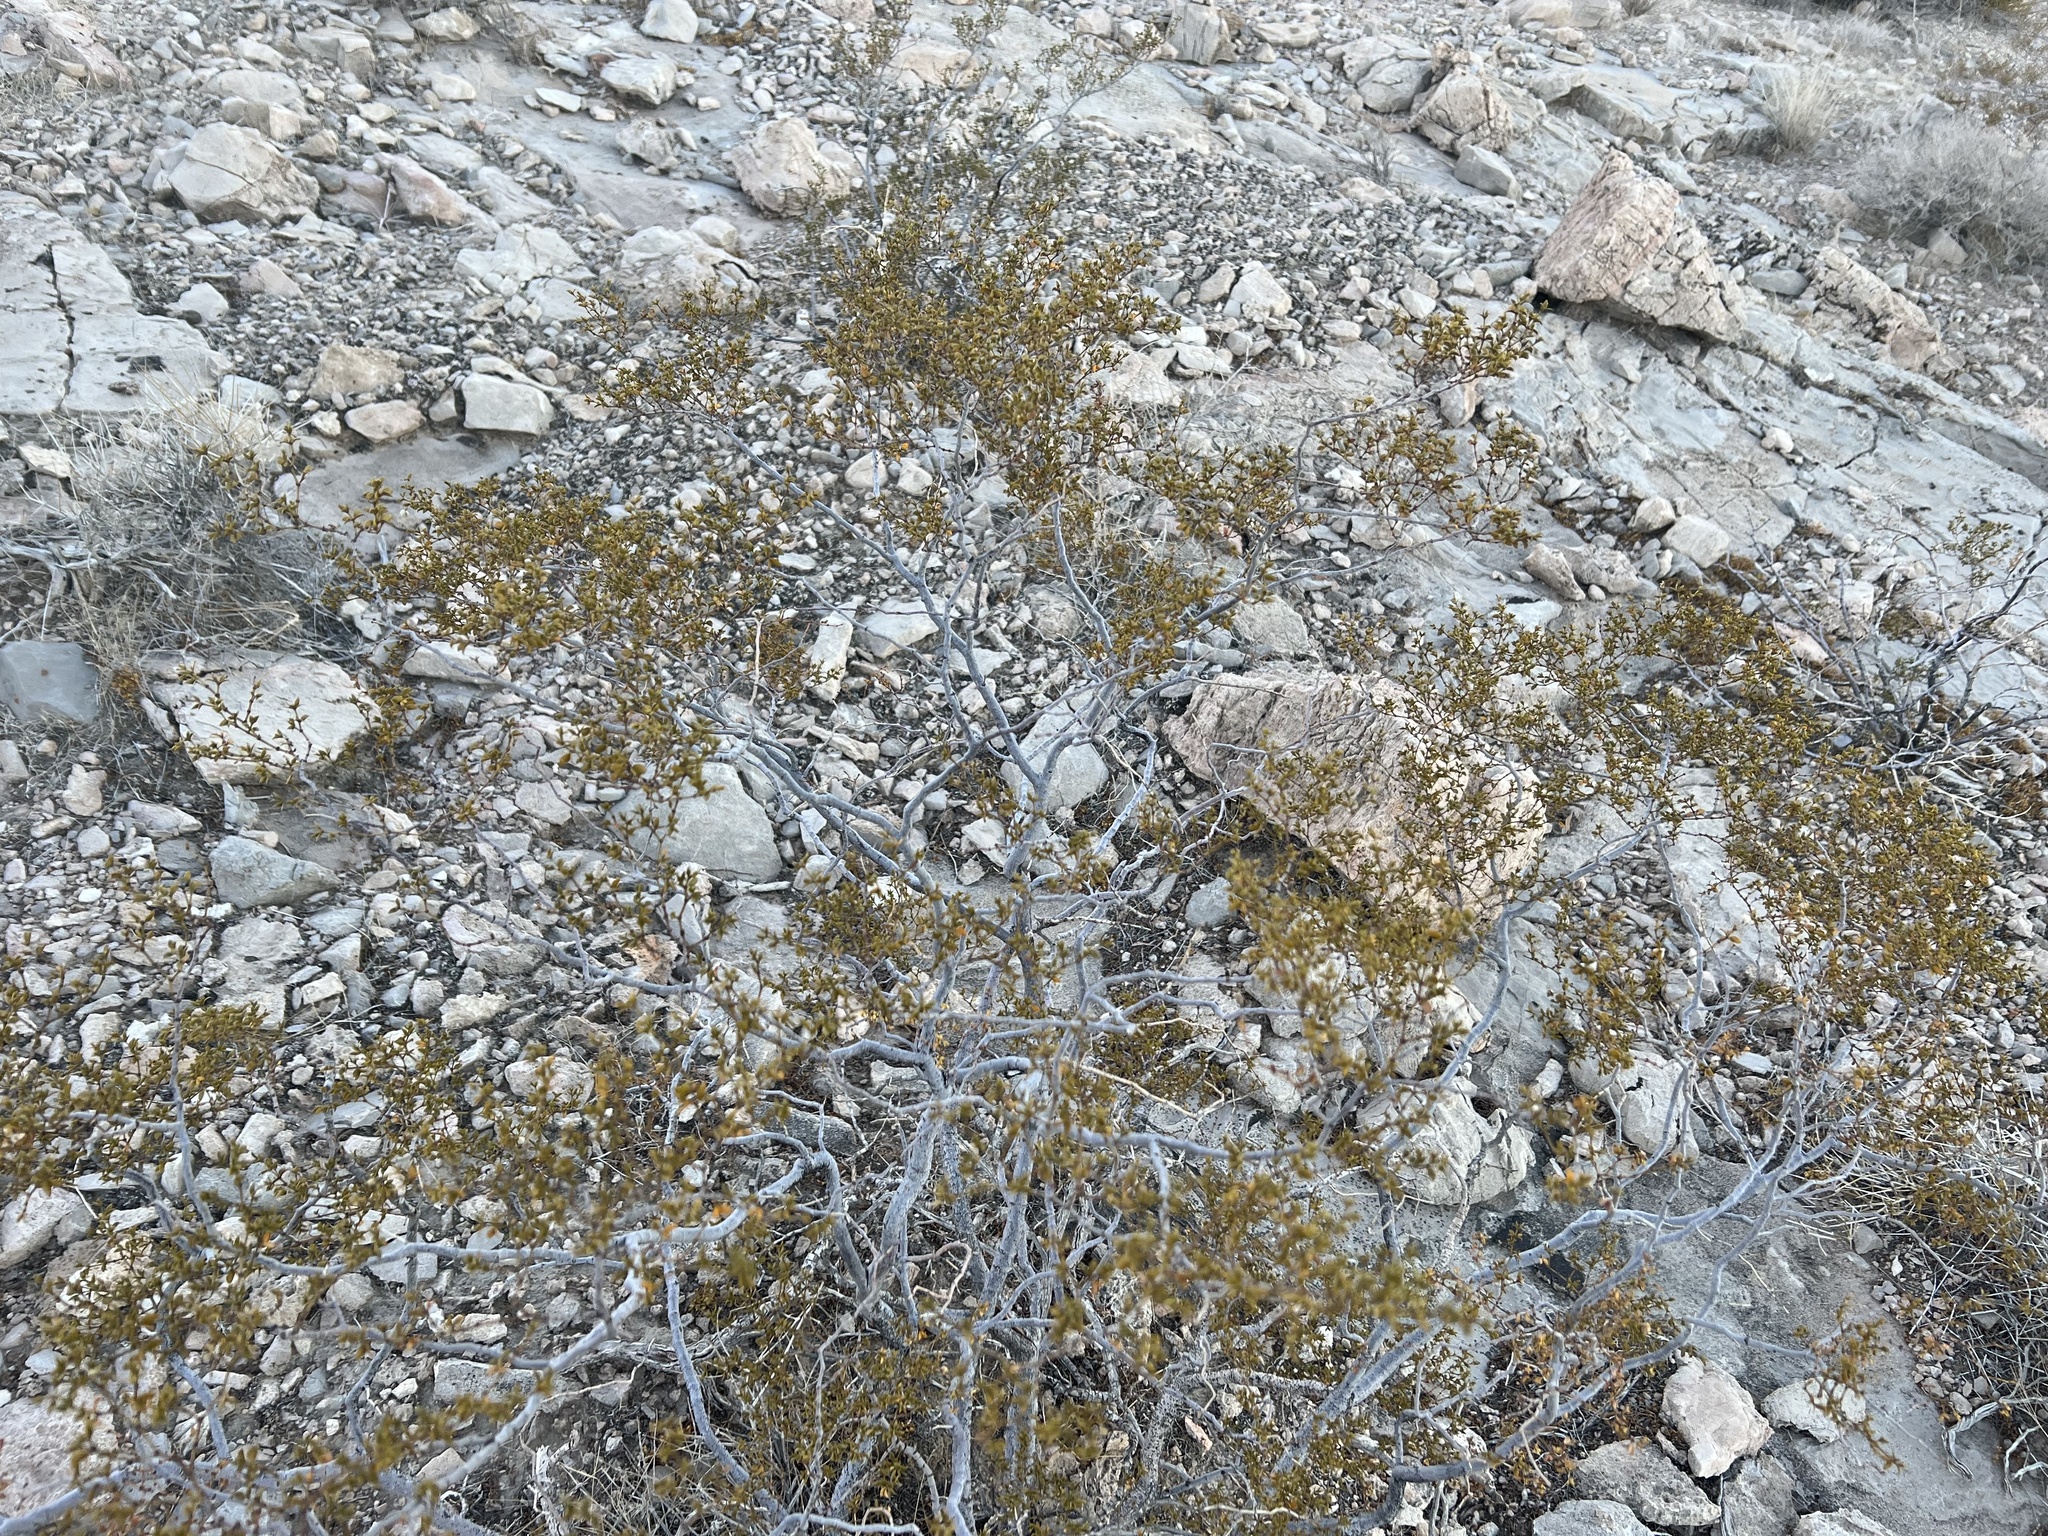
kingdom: Plantae
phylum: Tracheophyta
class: Magnoliopsida
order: Zygophyllales
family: Zygophyllaceae
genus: Larrea
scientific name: Larrea tridentata
